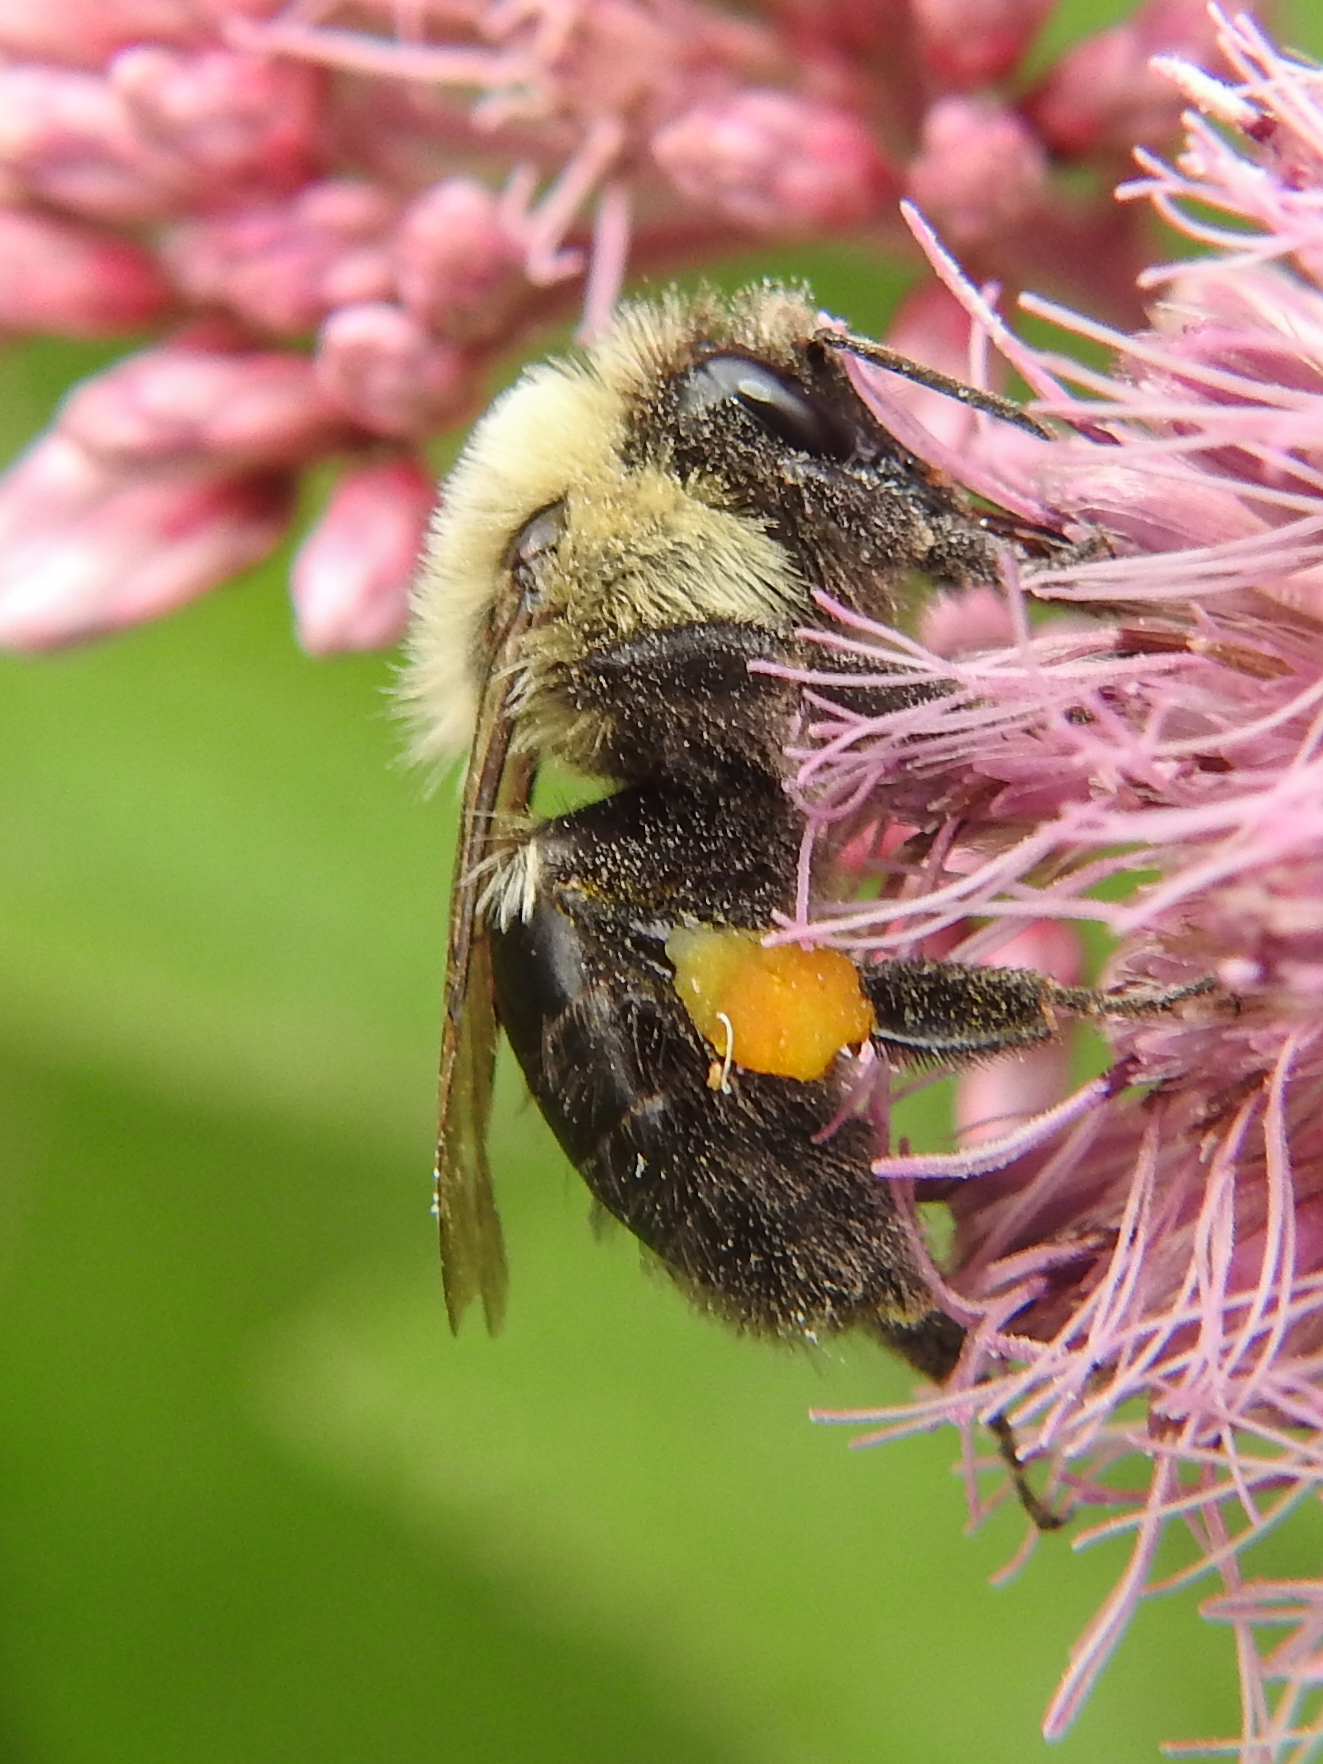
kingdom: Animalia
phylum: Arthropoda
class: Insecta
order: Hymenoptera
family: Apidae
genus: Bombus
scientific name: Bombus impatiens
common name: Common eastern bumble bee
